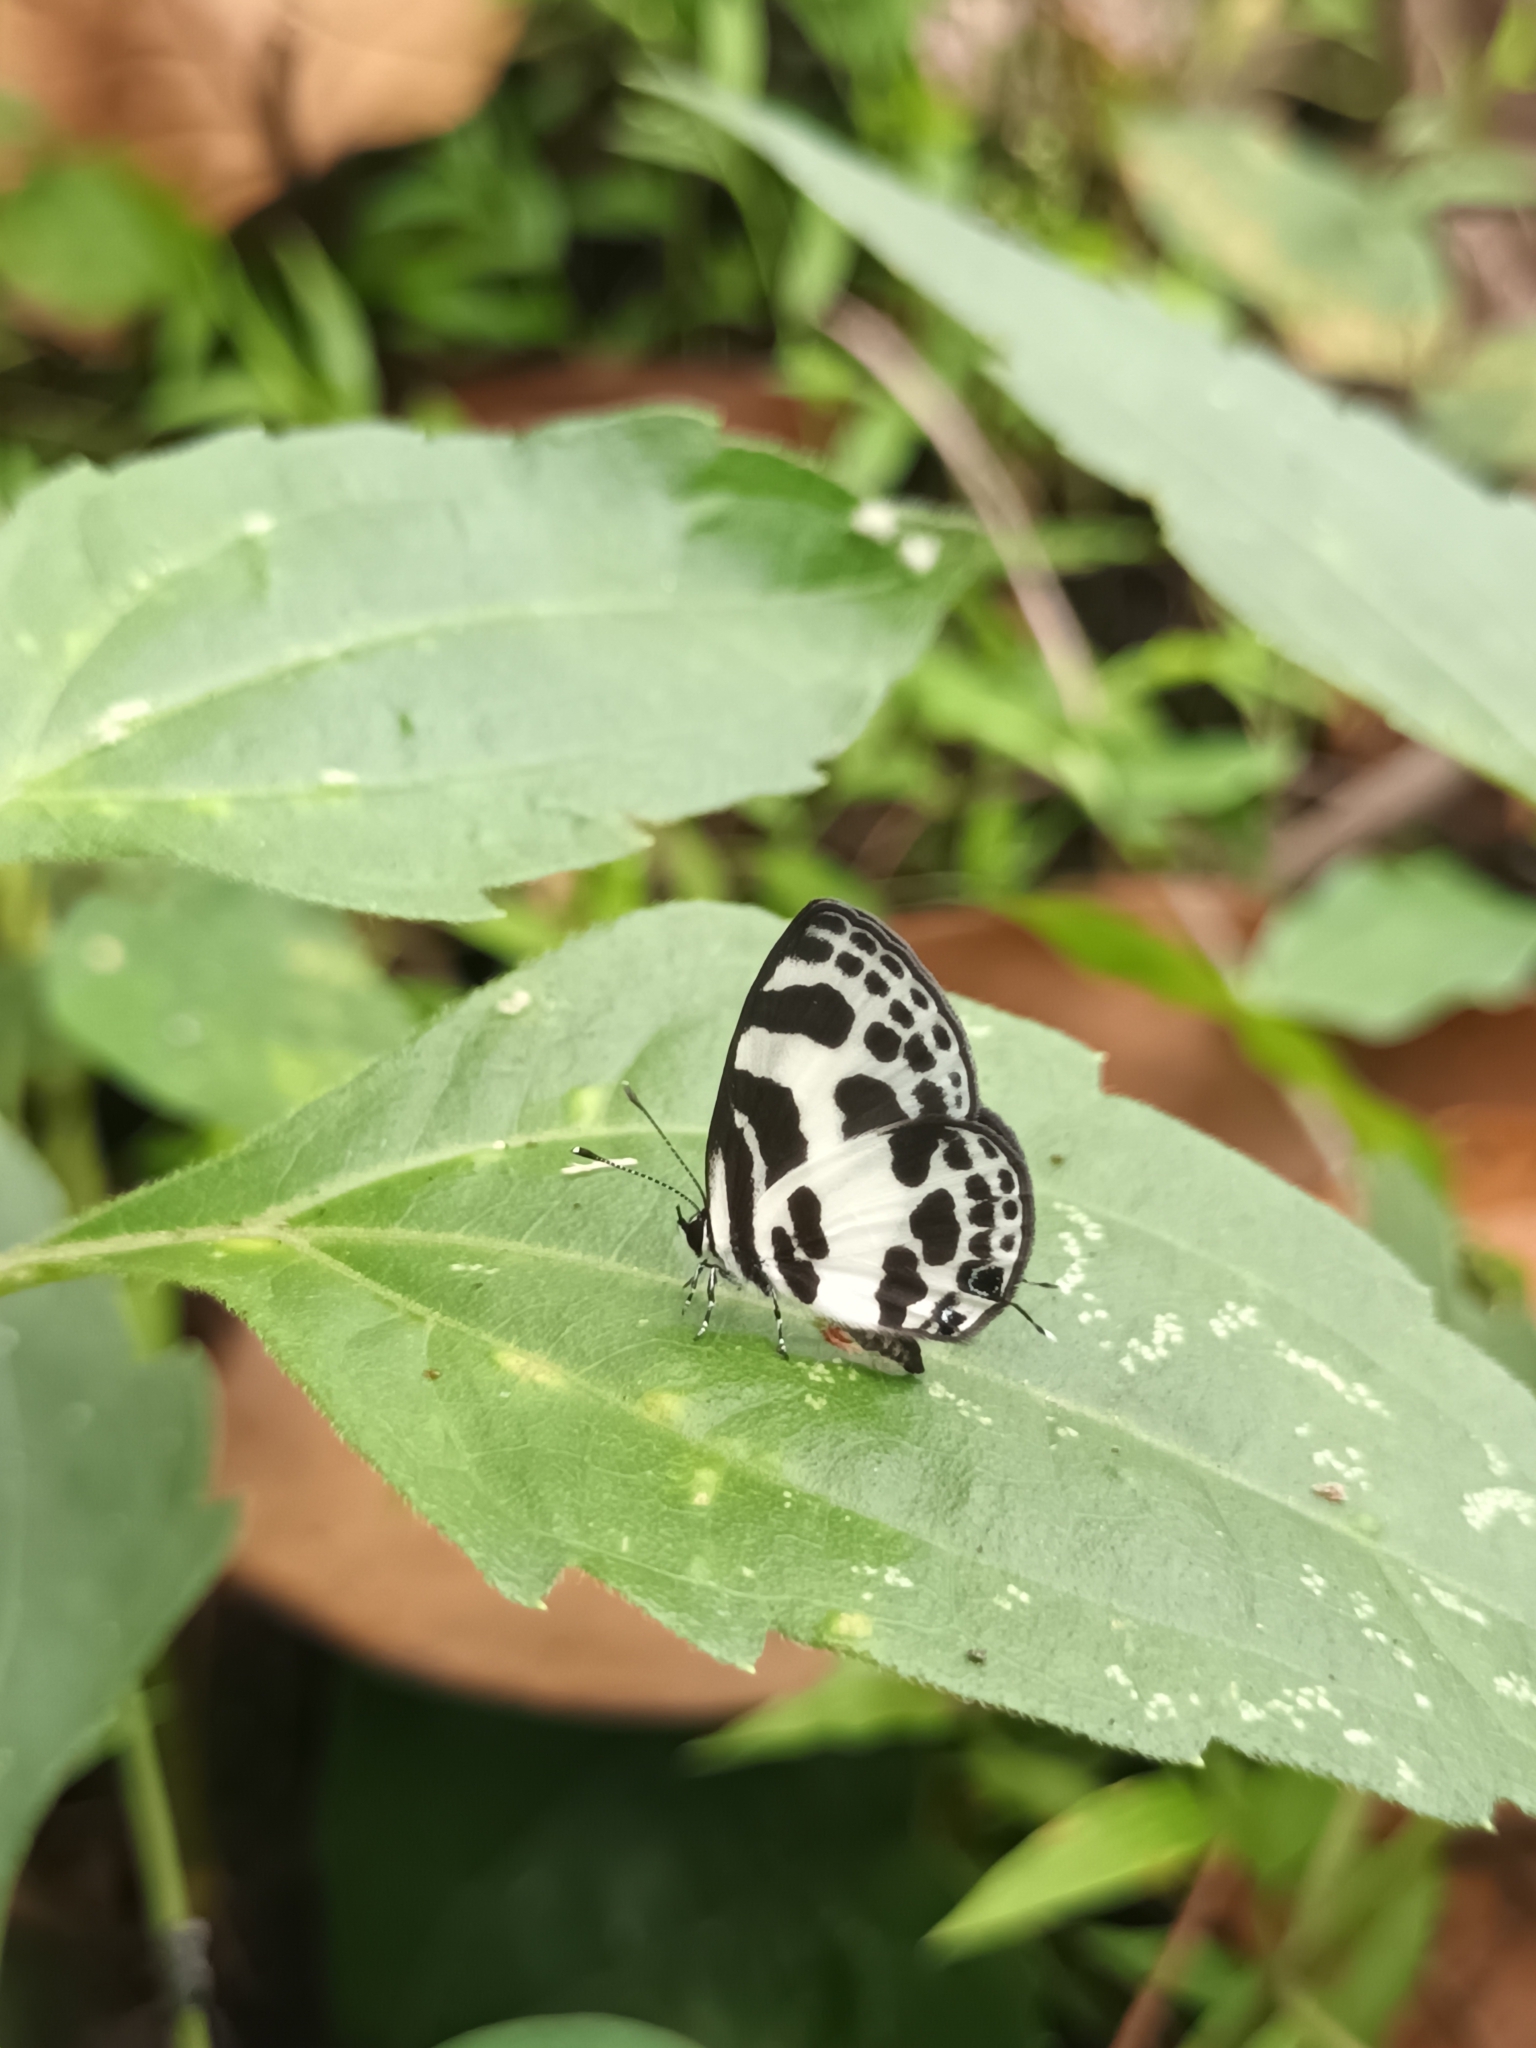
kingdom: Animalia
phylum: Arthropoda
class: Insecta
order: Lepidoptera
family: Lycaenidae
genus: Discolampa
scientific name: Discolampa ethion
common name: Banded blue pierrot
